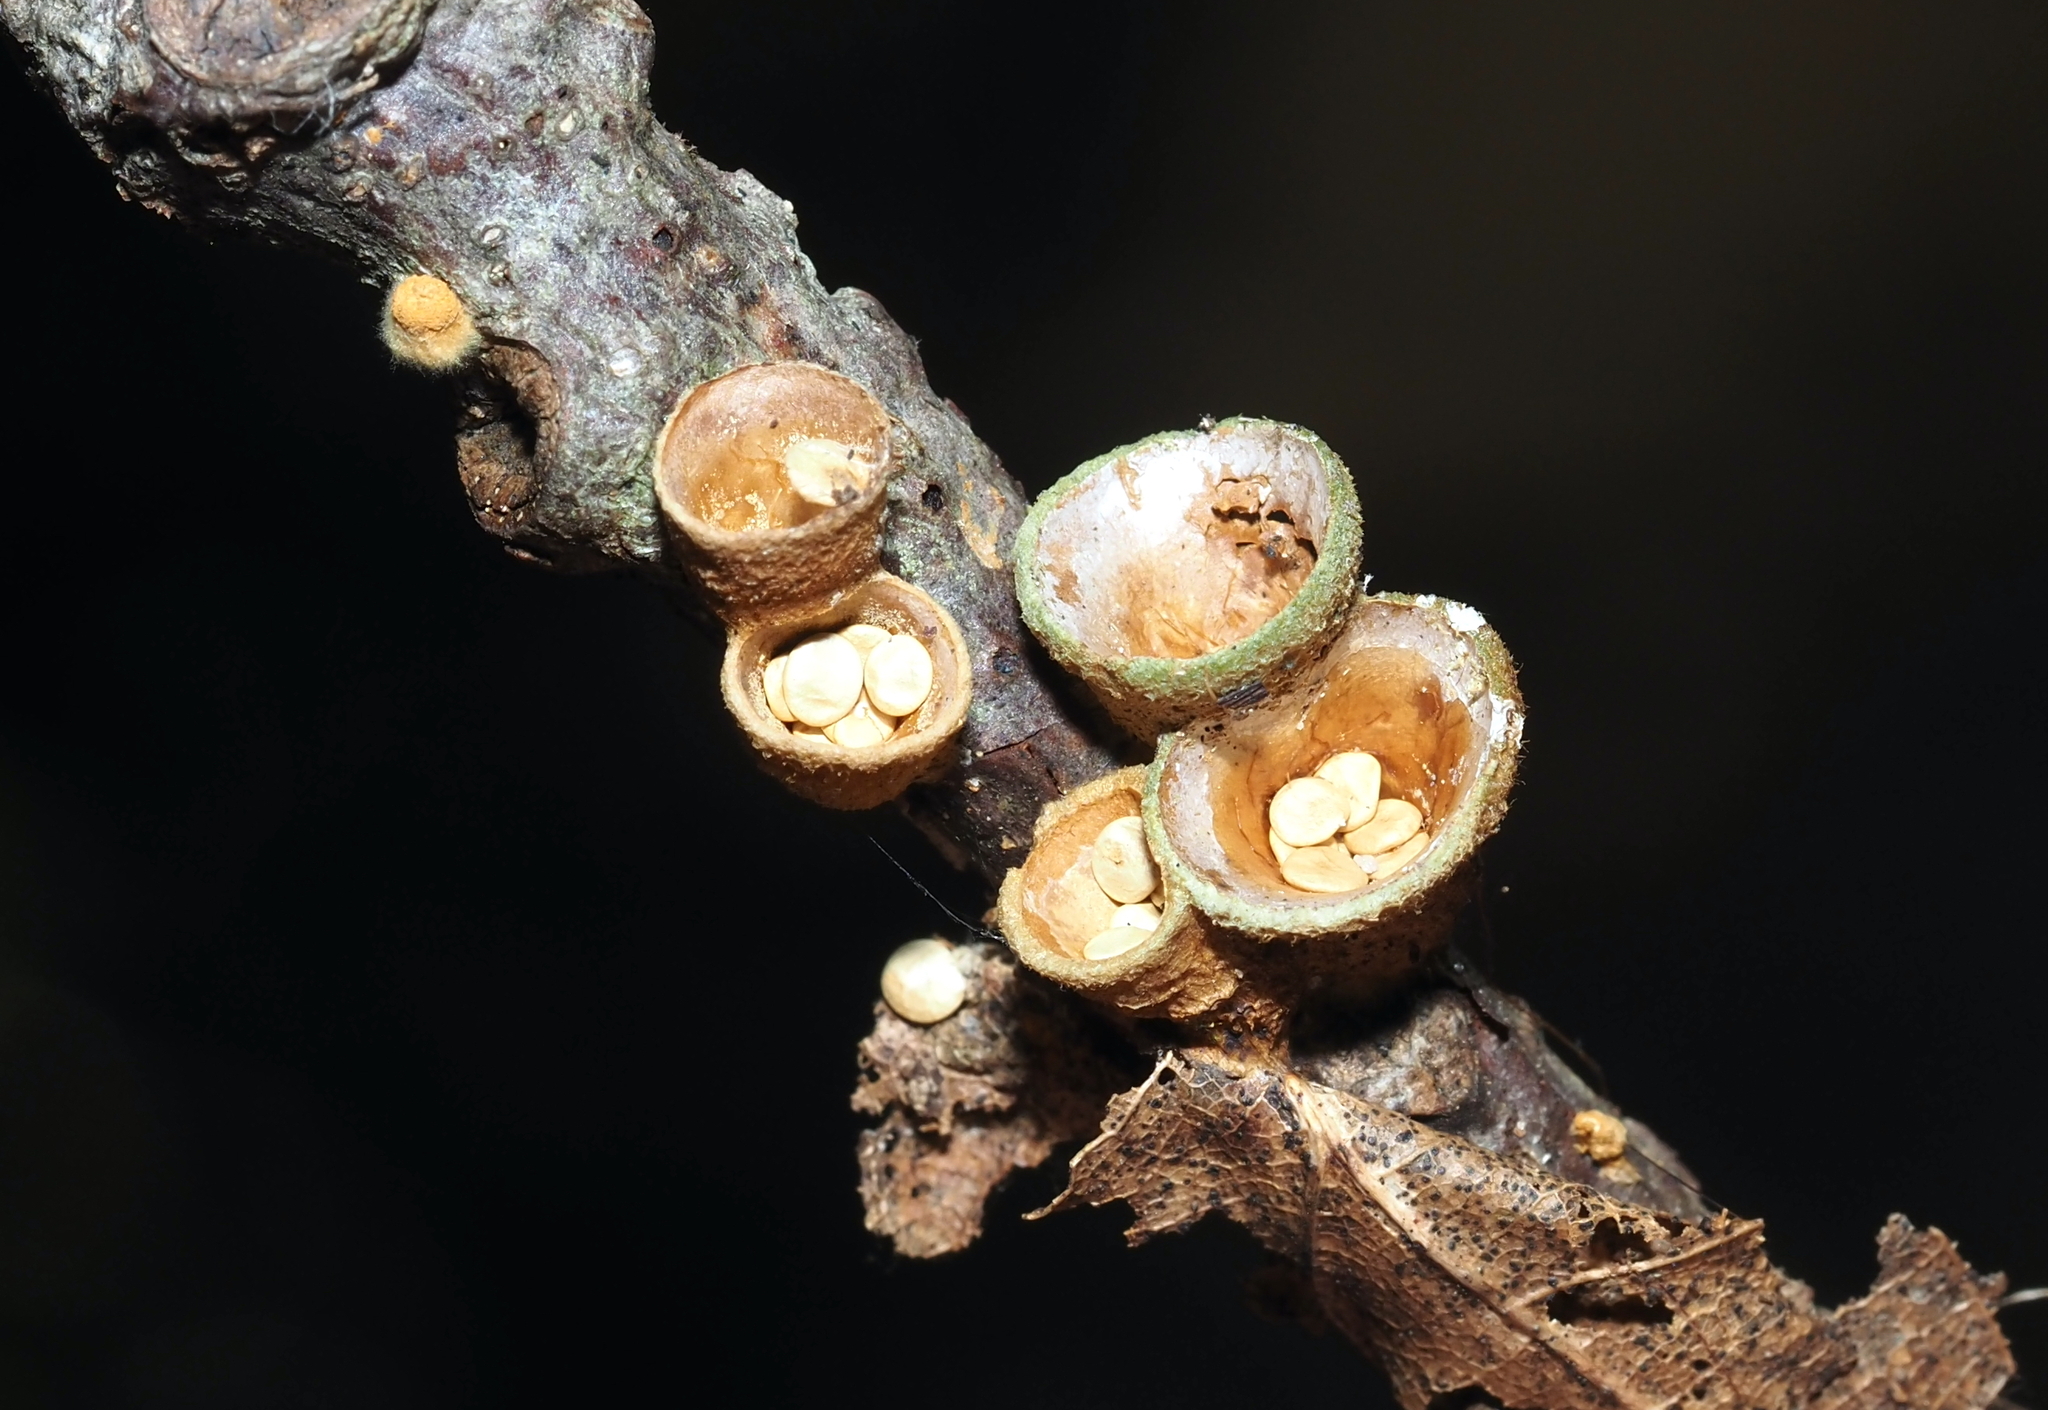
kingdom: Fungi
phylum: Basidiomycota
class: Agaricomycetes
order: Agaricales
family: Nidulariaceae
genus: Crucibulum
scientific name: Crucibulum laeve
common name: Common bird's nest
